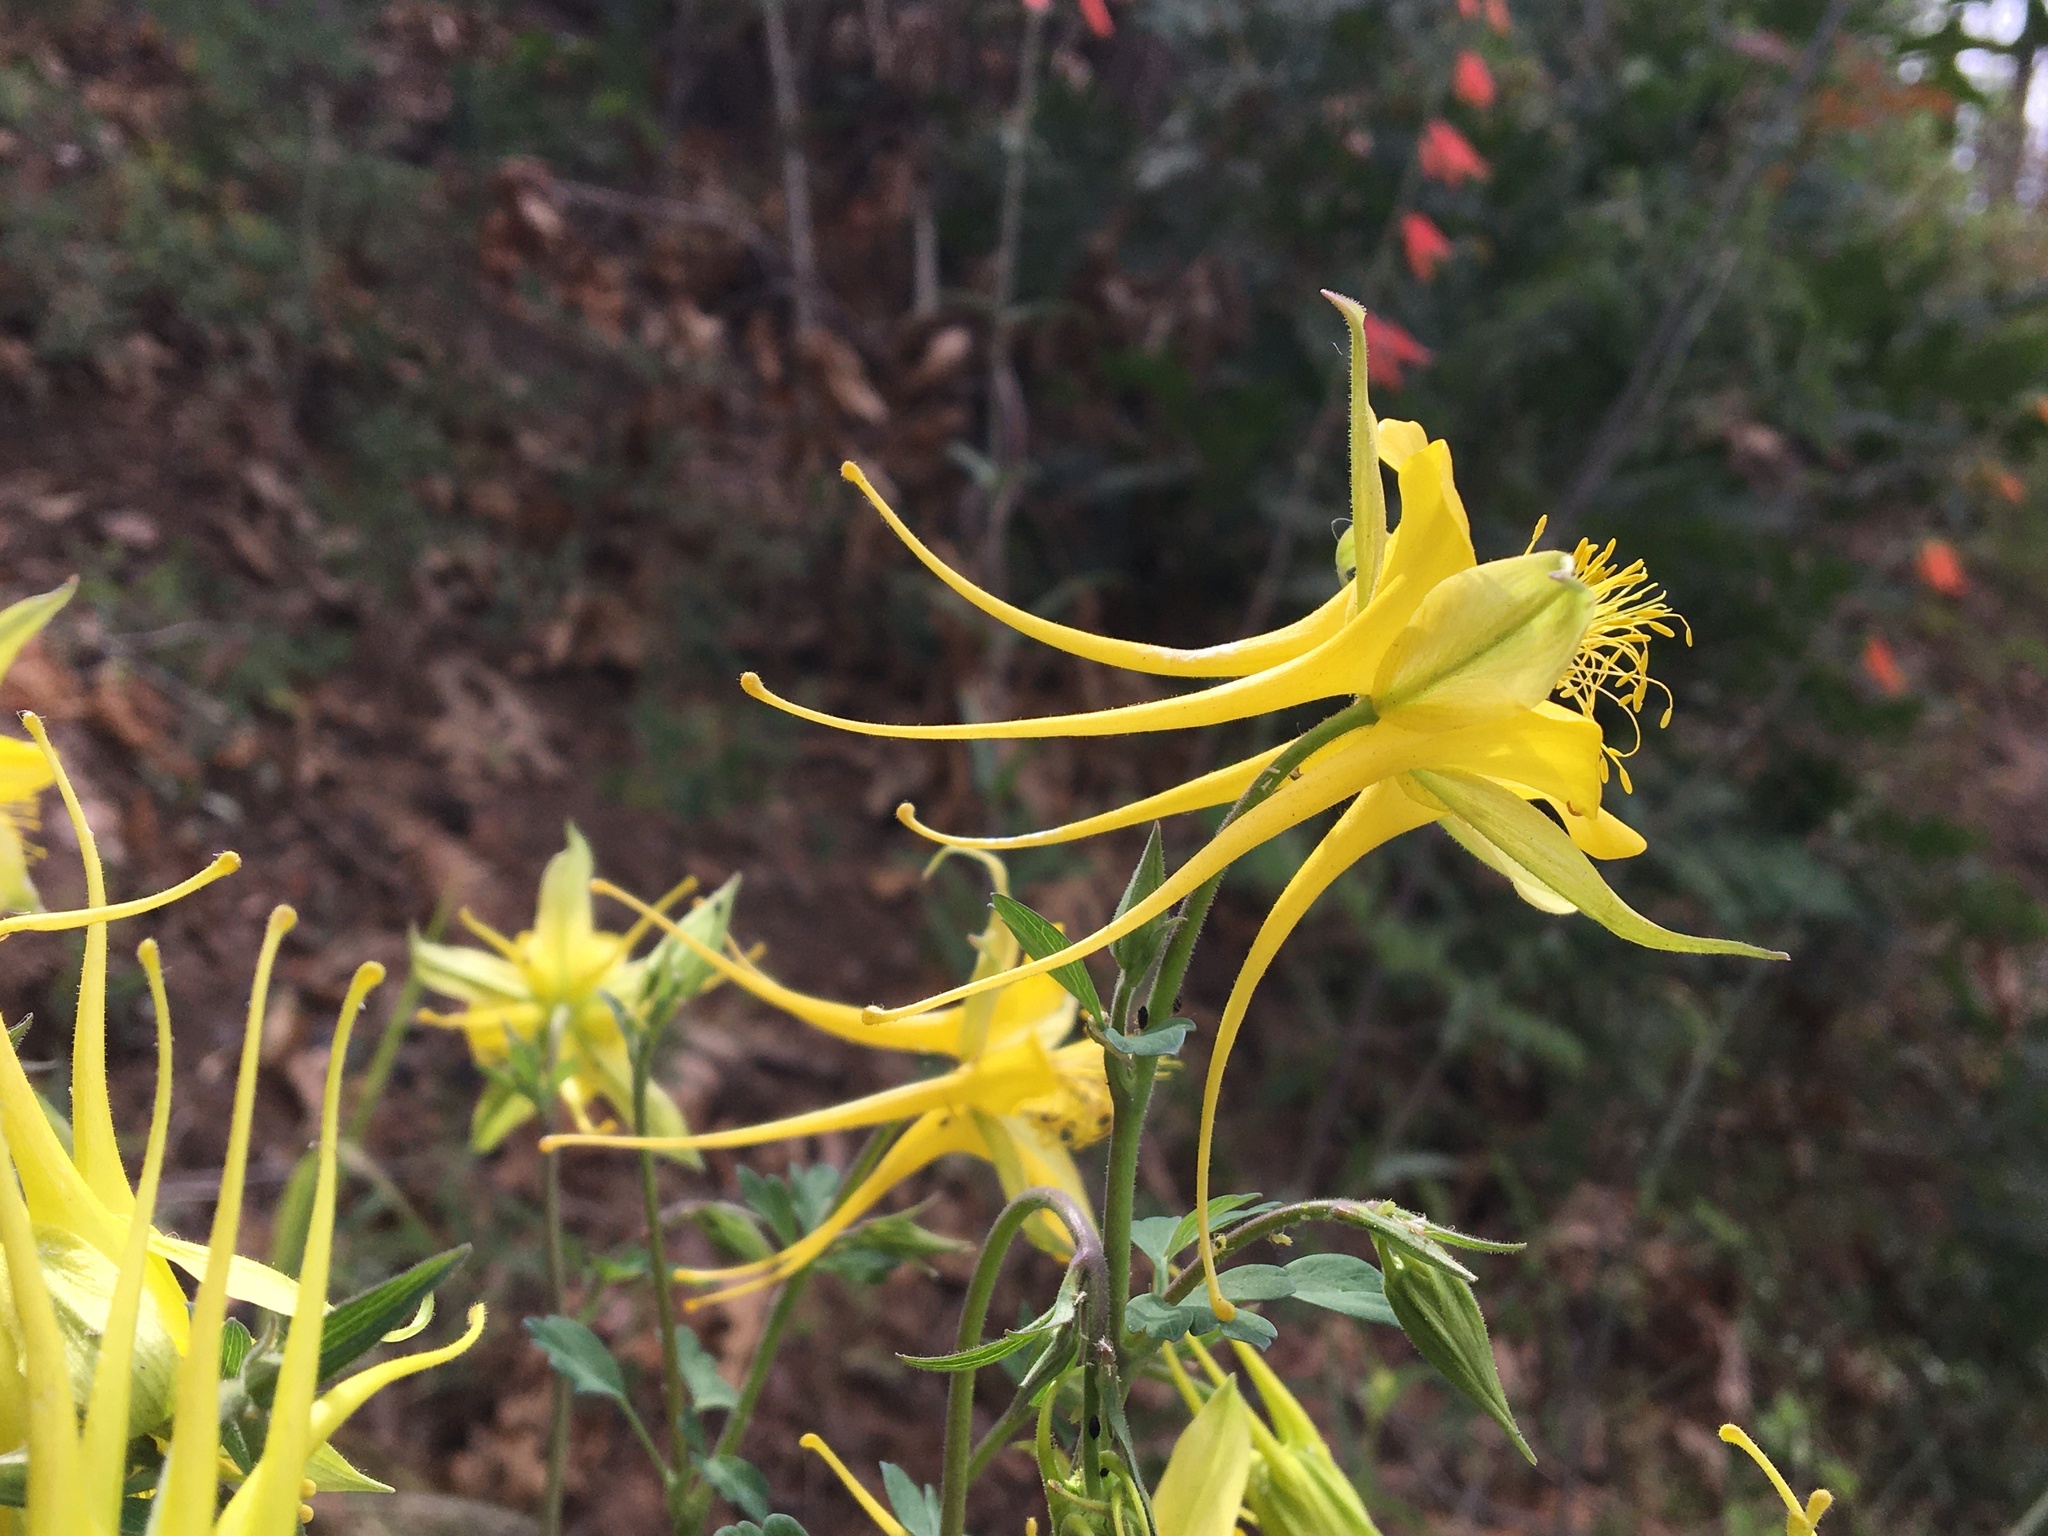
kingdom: Plantae
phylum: Tracheophyta
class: Magnoliopsida
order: Ranunculales
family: Ranunculaceae
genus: Aquilegia
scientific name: Aquilegia chrysantha
